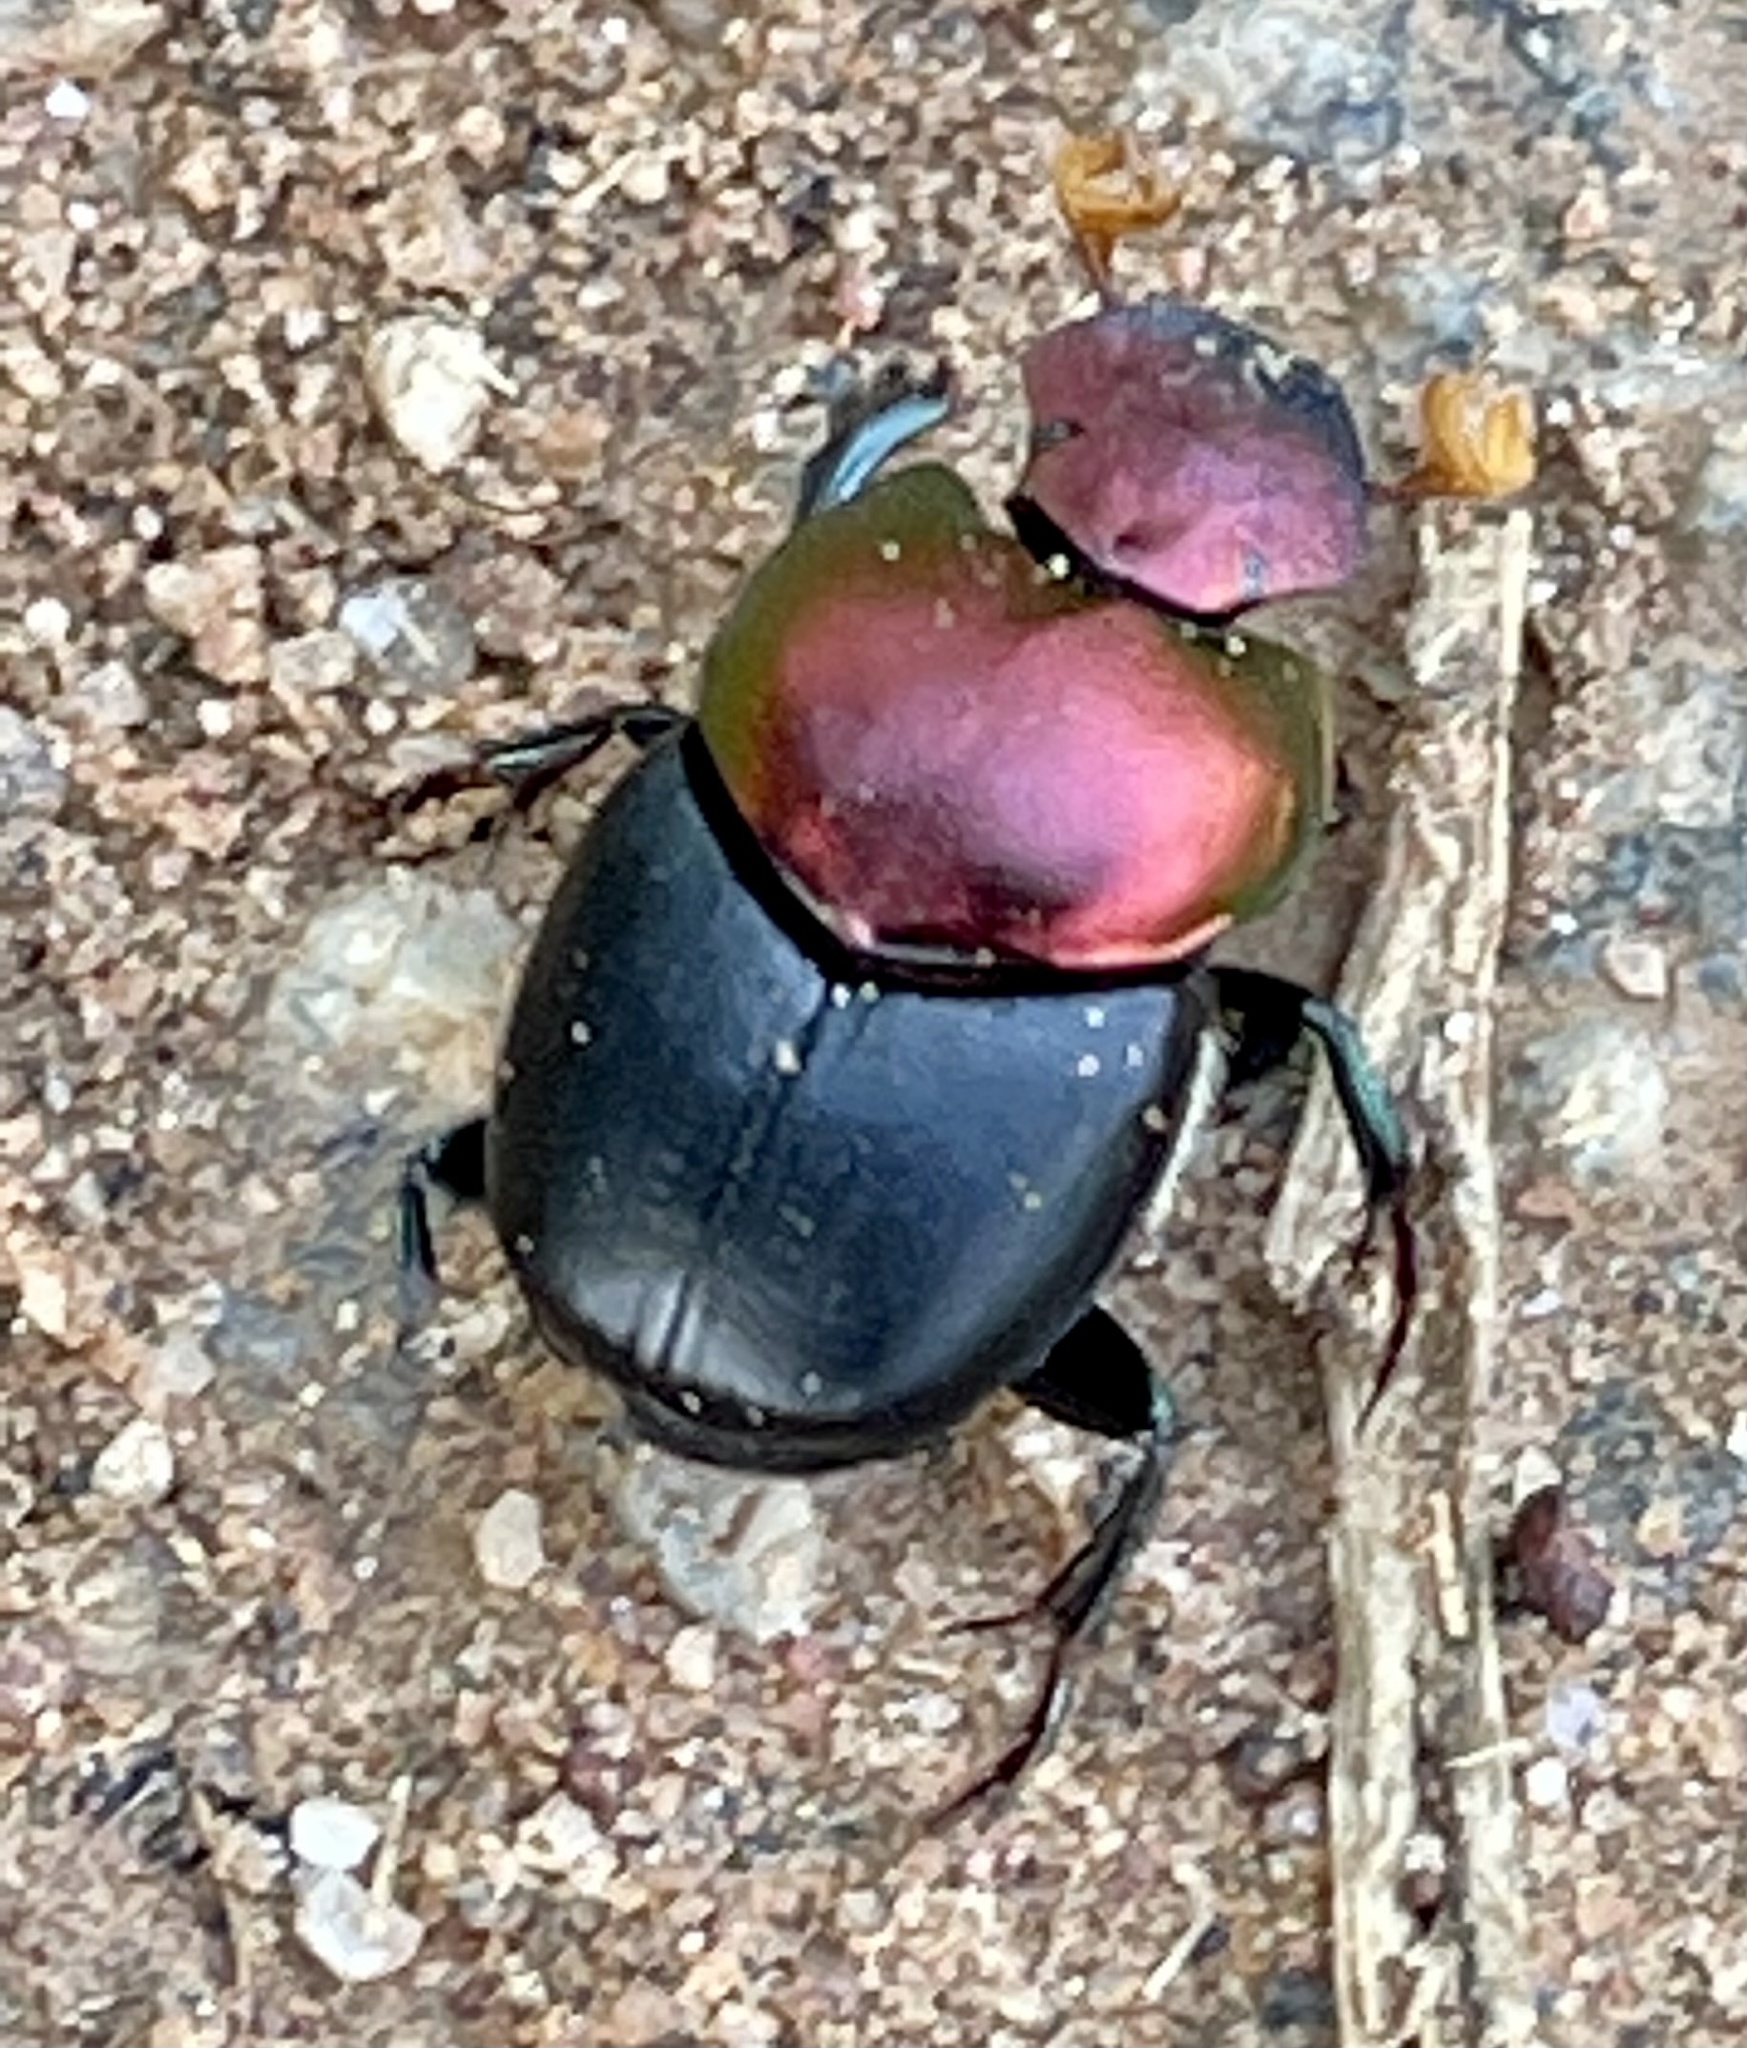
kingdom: Animalia
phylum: Arthropoda
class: Insecta
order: Coleoptera
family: Scarabaeidae
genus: Proagoderus
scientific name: Proagoderus
